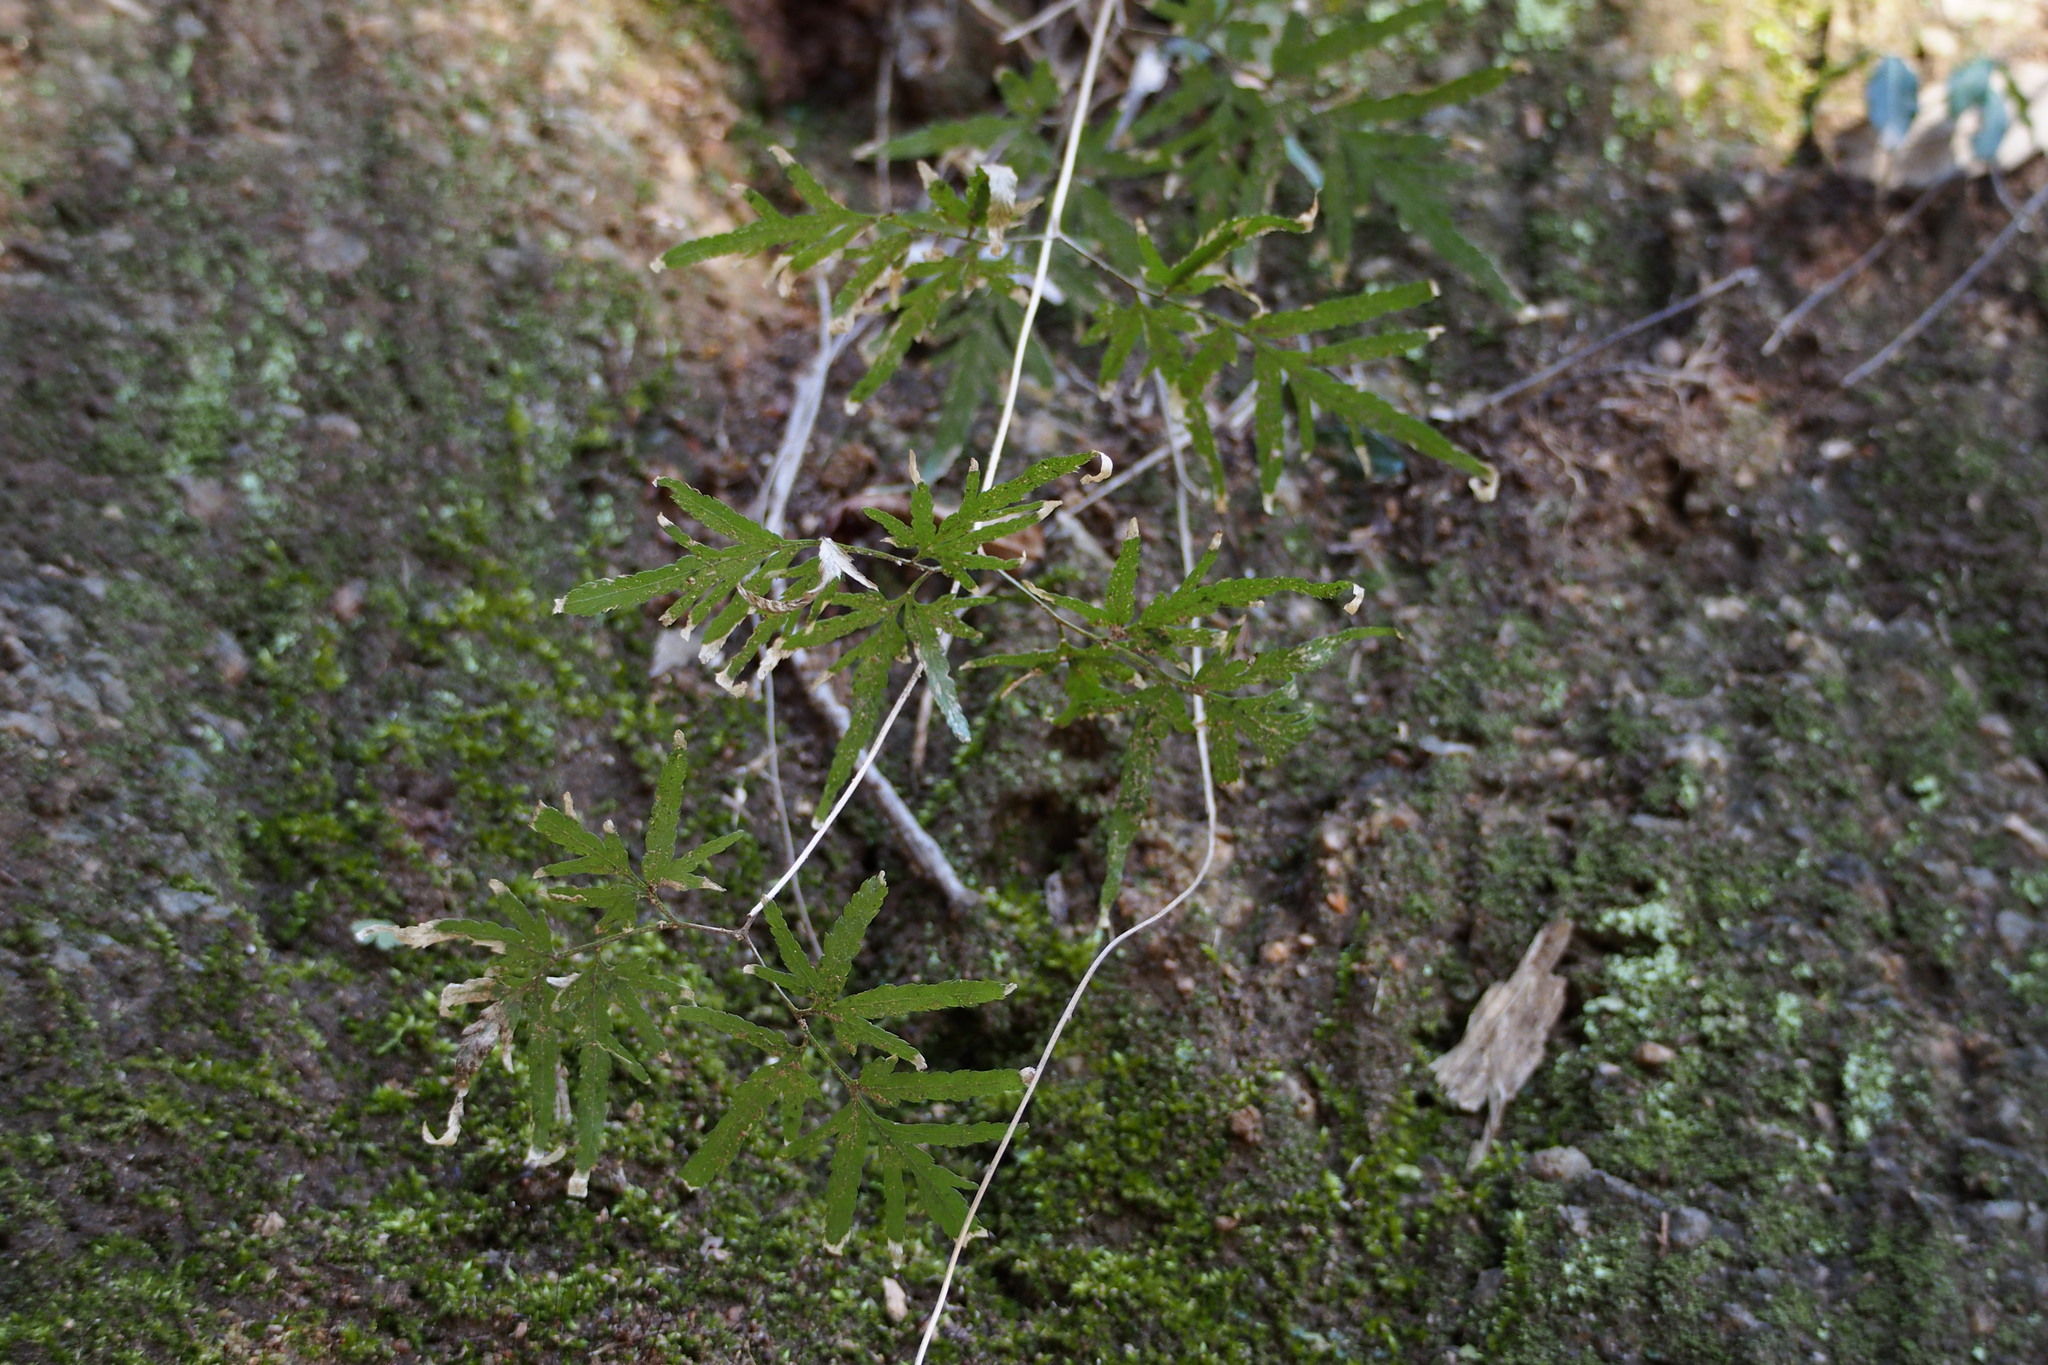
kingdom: Plantae
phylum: Tracheophyta
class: Polypodiopsida
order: Schizaeales
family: Lygodiaceae
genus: Lygodium
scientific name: Lygodium japonicum
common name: Japanese climbing fern
